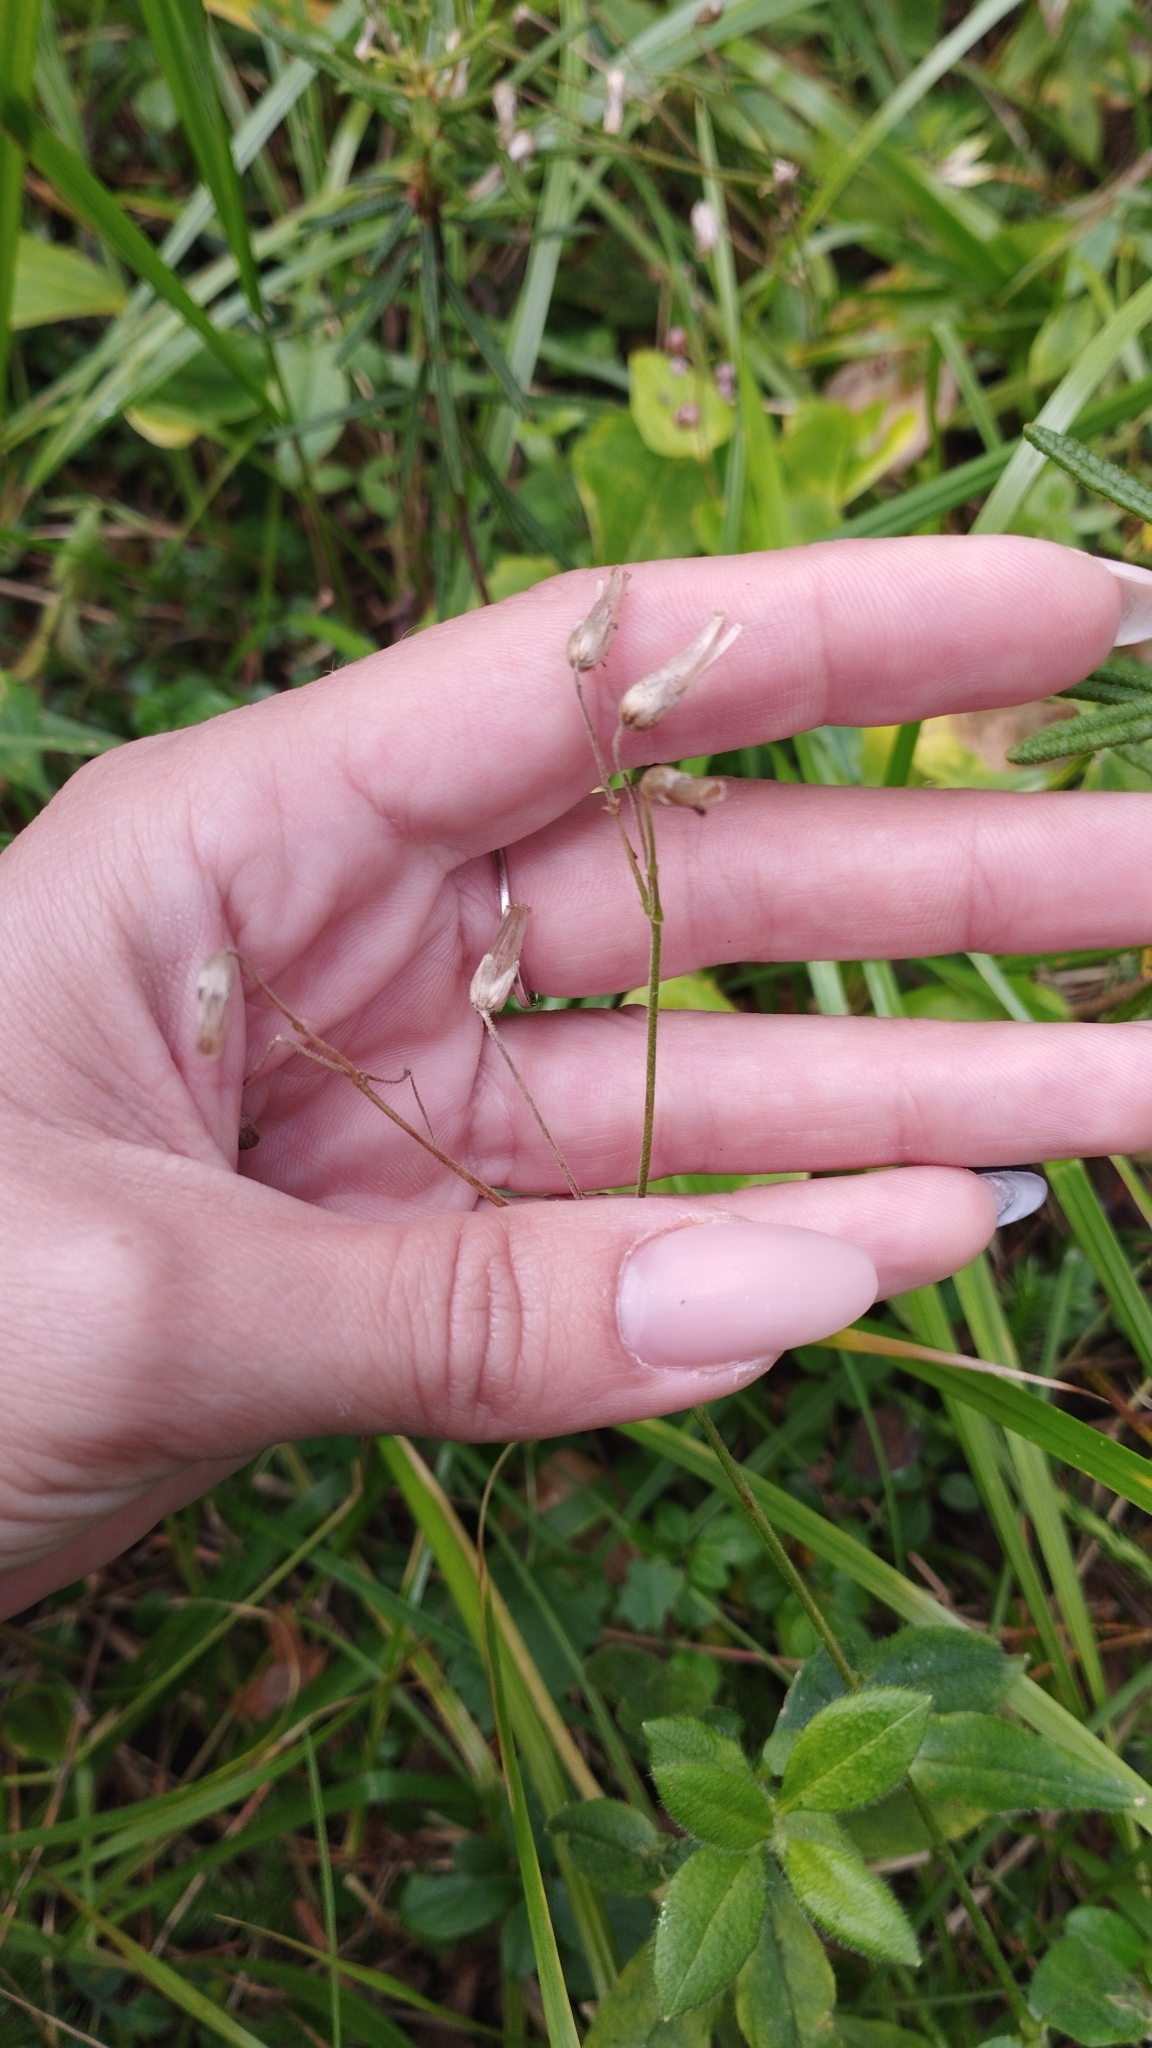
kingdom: Plantae
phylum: Tracheophyta
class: Magnoliopsida
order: Caryophyllales
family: Caryophyllaceae
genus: Cerastium
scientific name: Cerastium pauciflorum
